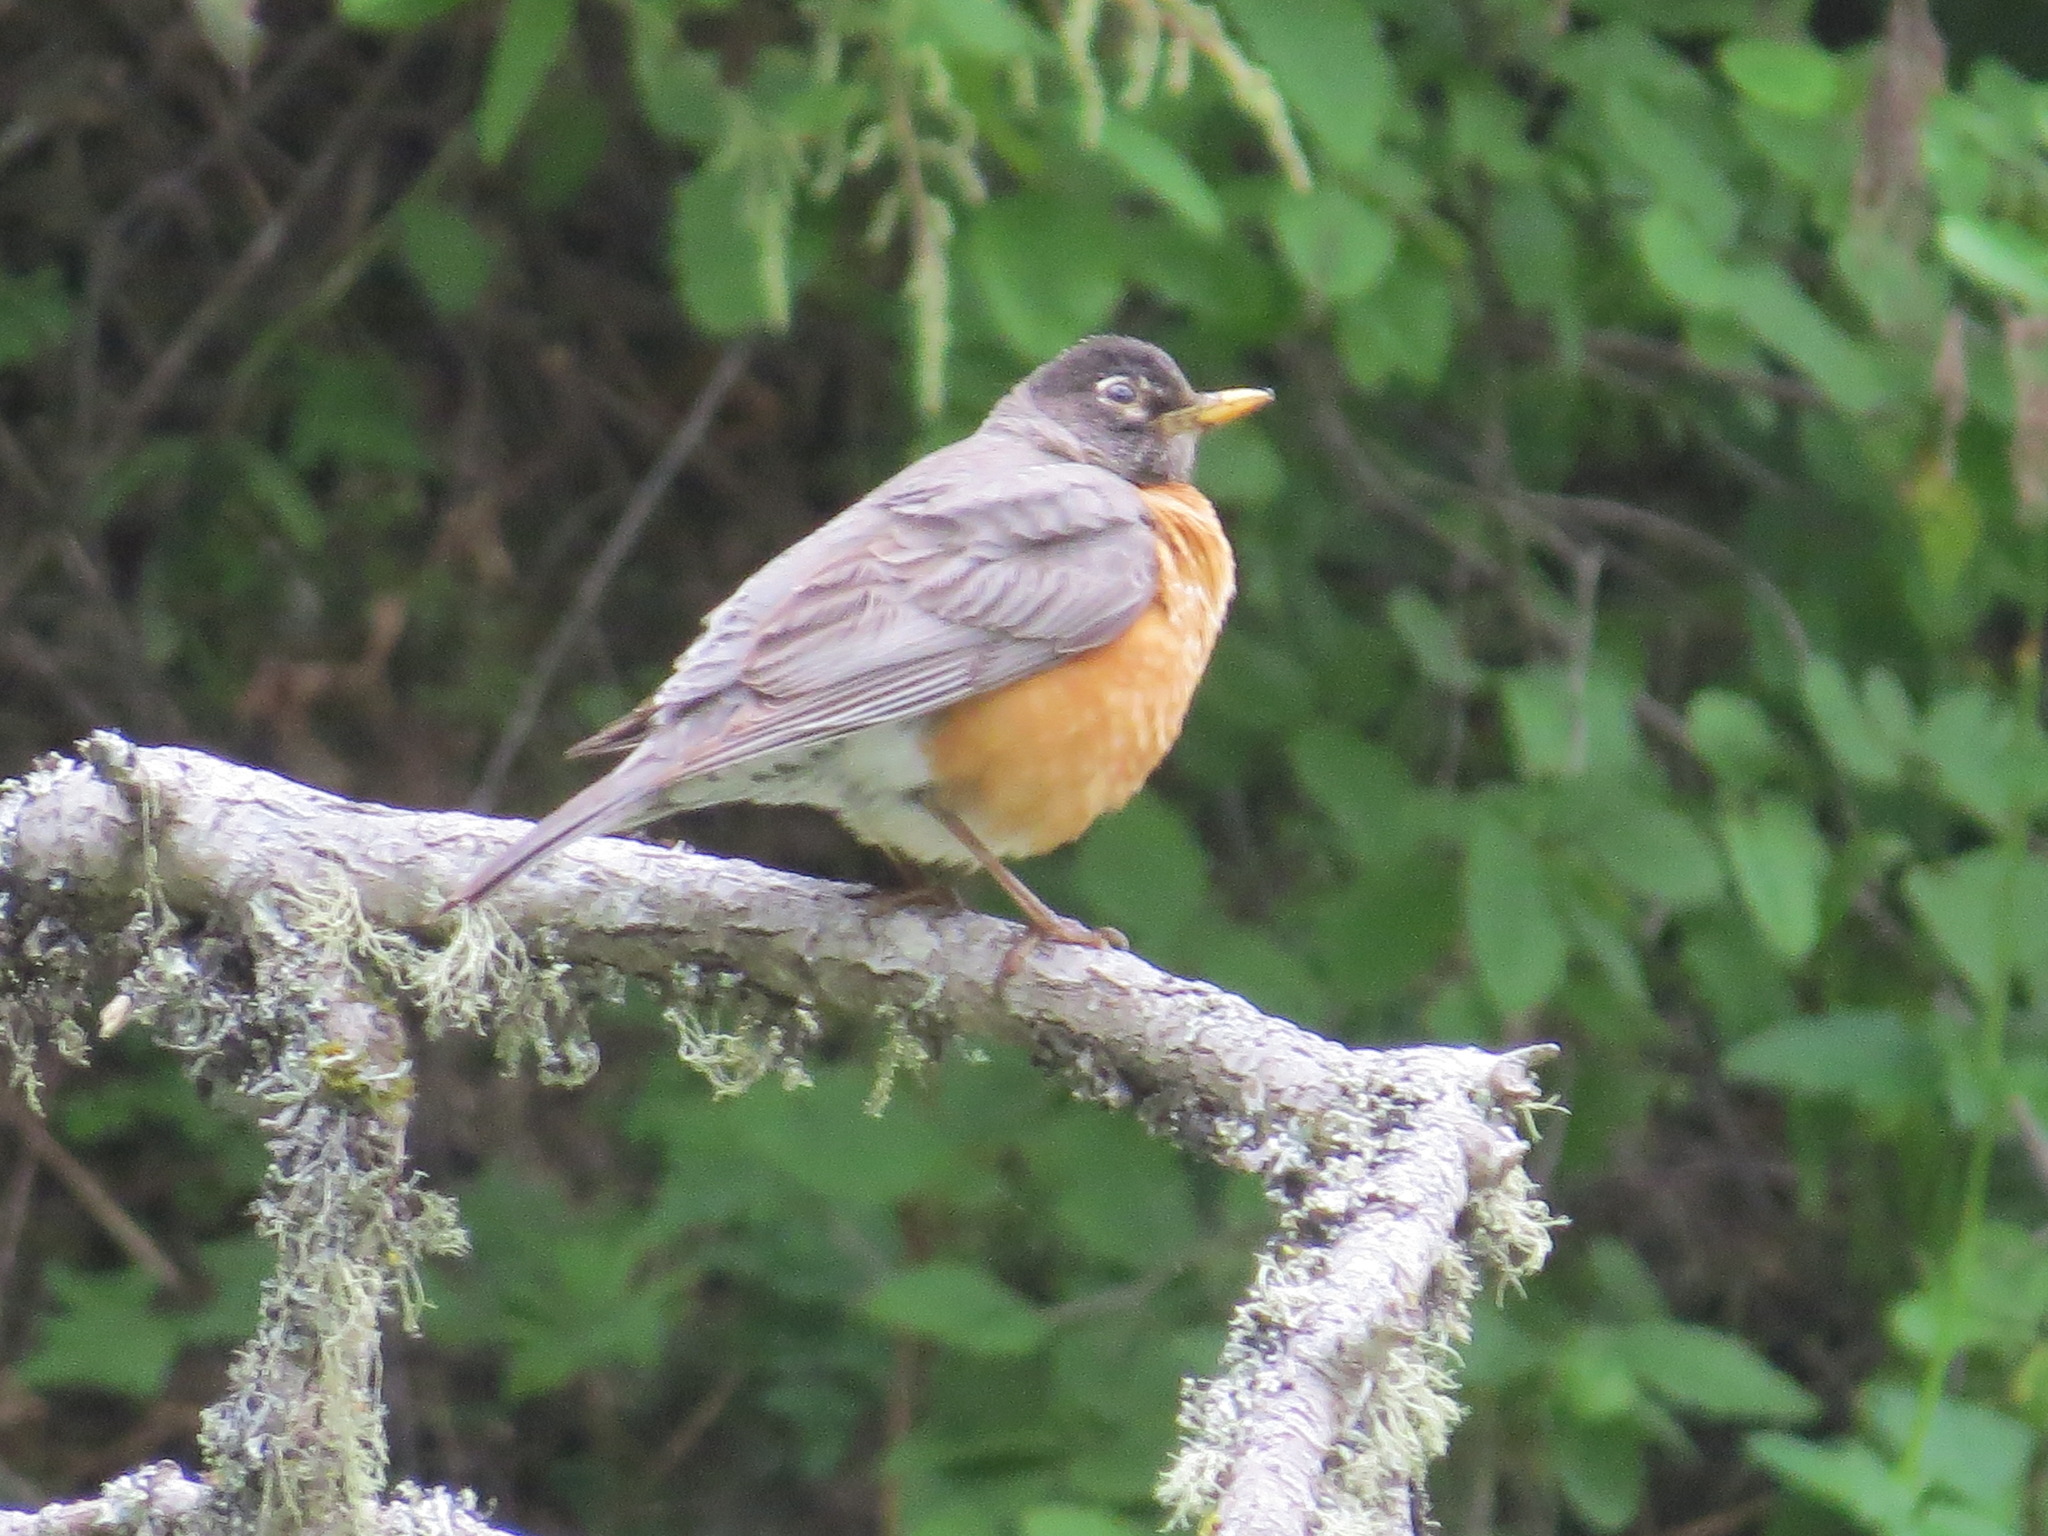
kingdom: Animalia
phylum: Chordata
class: Aves
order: Passeriformes
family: Turdidae
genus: Turdus
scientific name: Turdus migratorius
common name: American robin
